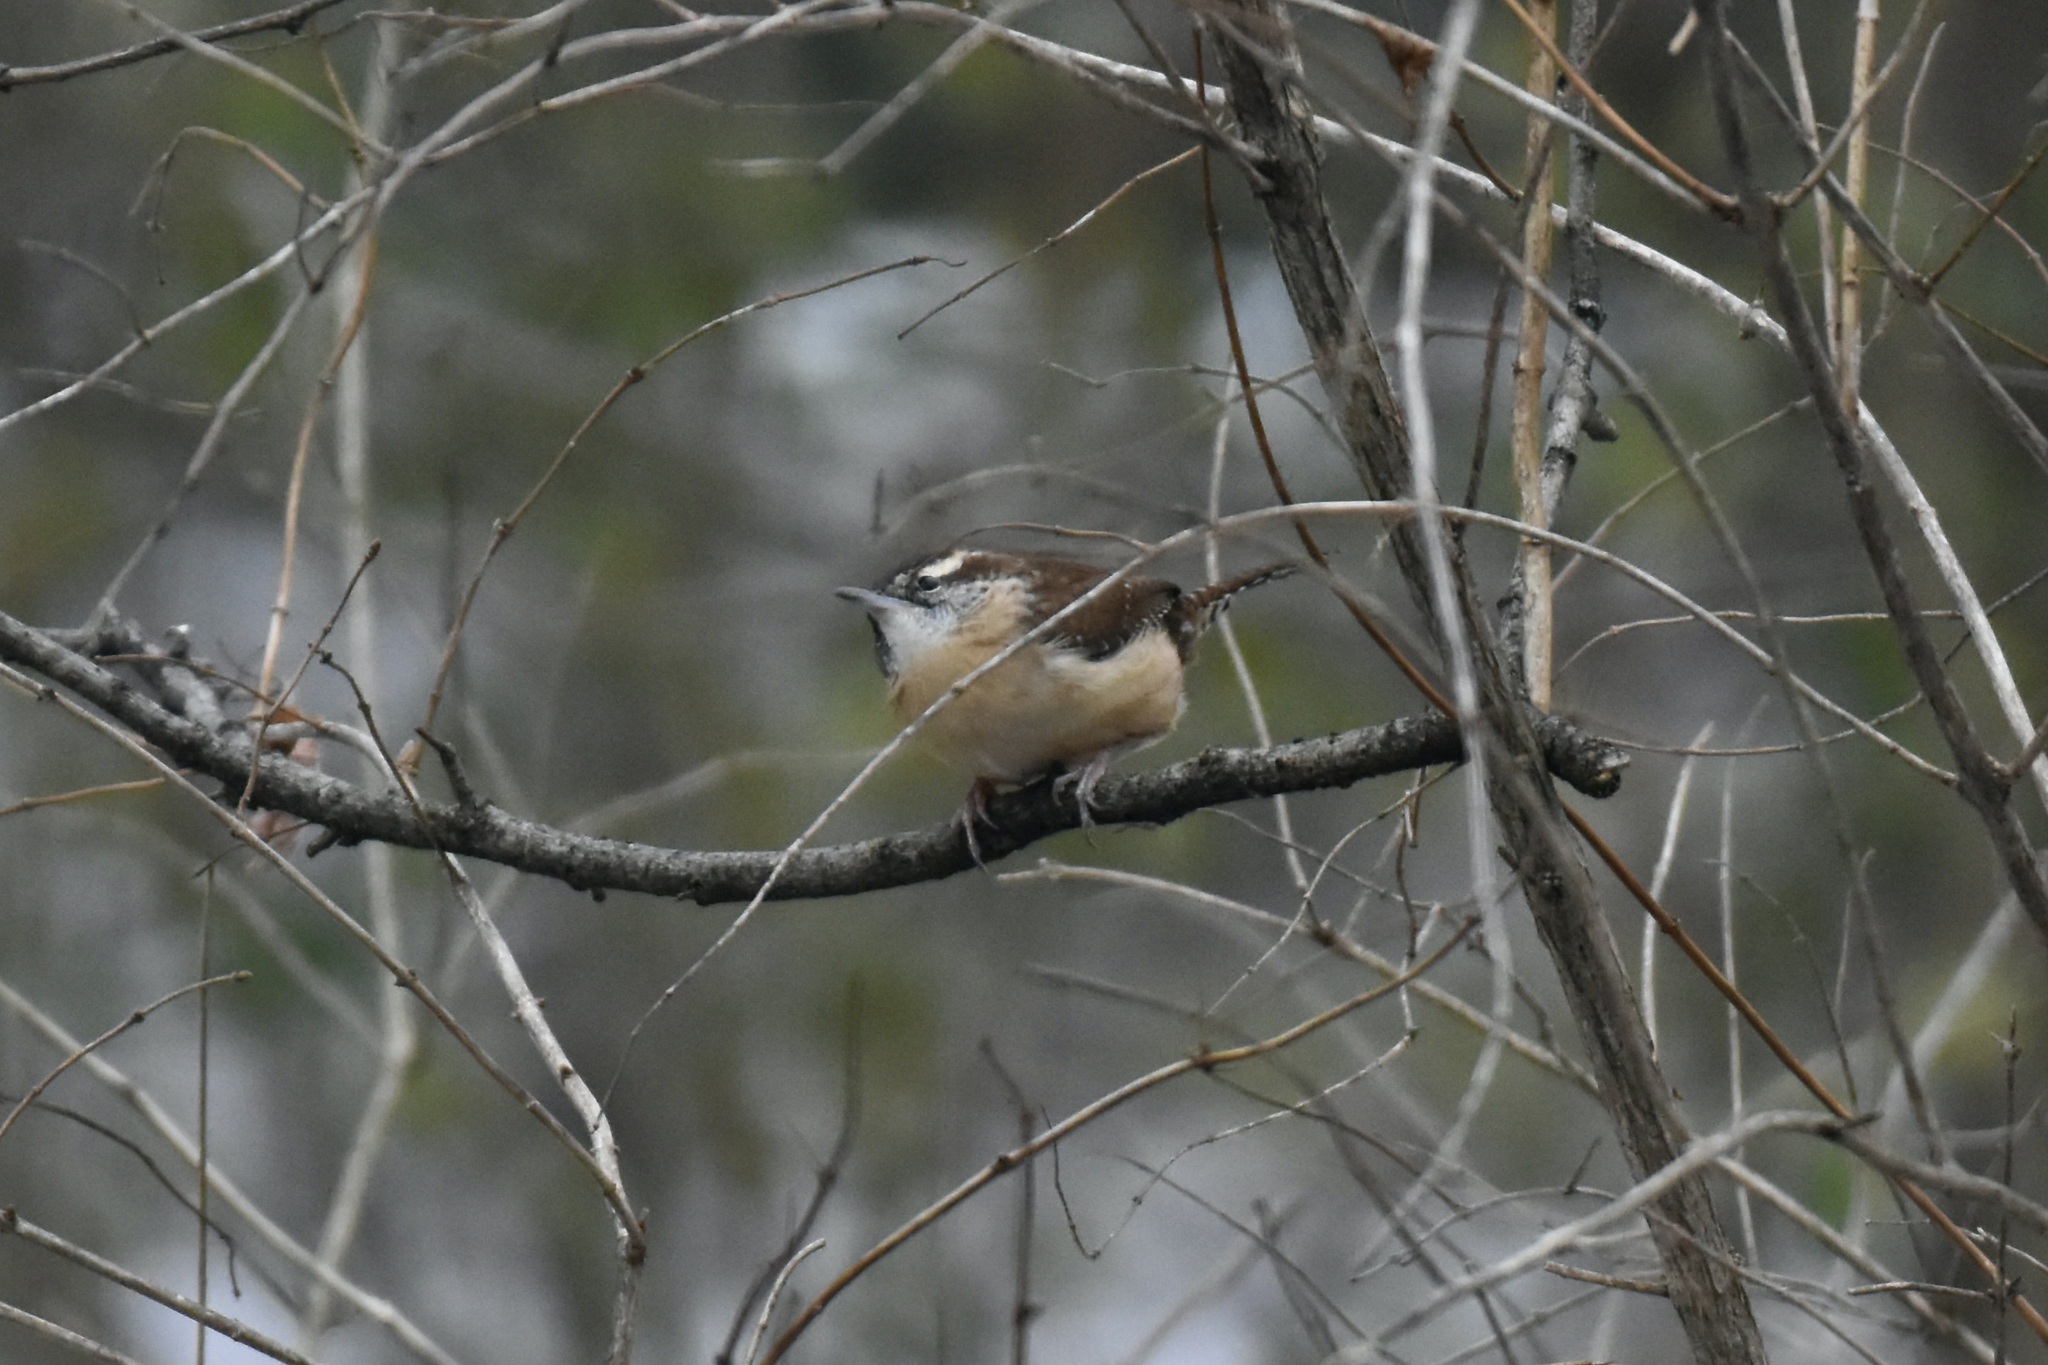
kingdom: Animalia
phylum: Chordata
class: Aves
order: Passeriformes
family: Troglodytidae
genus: Thryothorus
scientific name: Thryothorus ludovicianus
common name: Carolina wren
